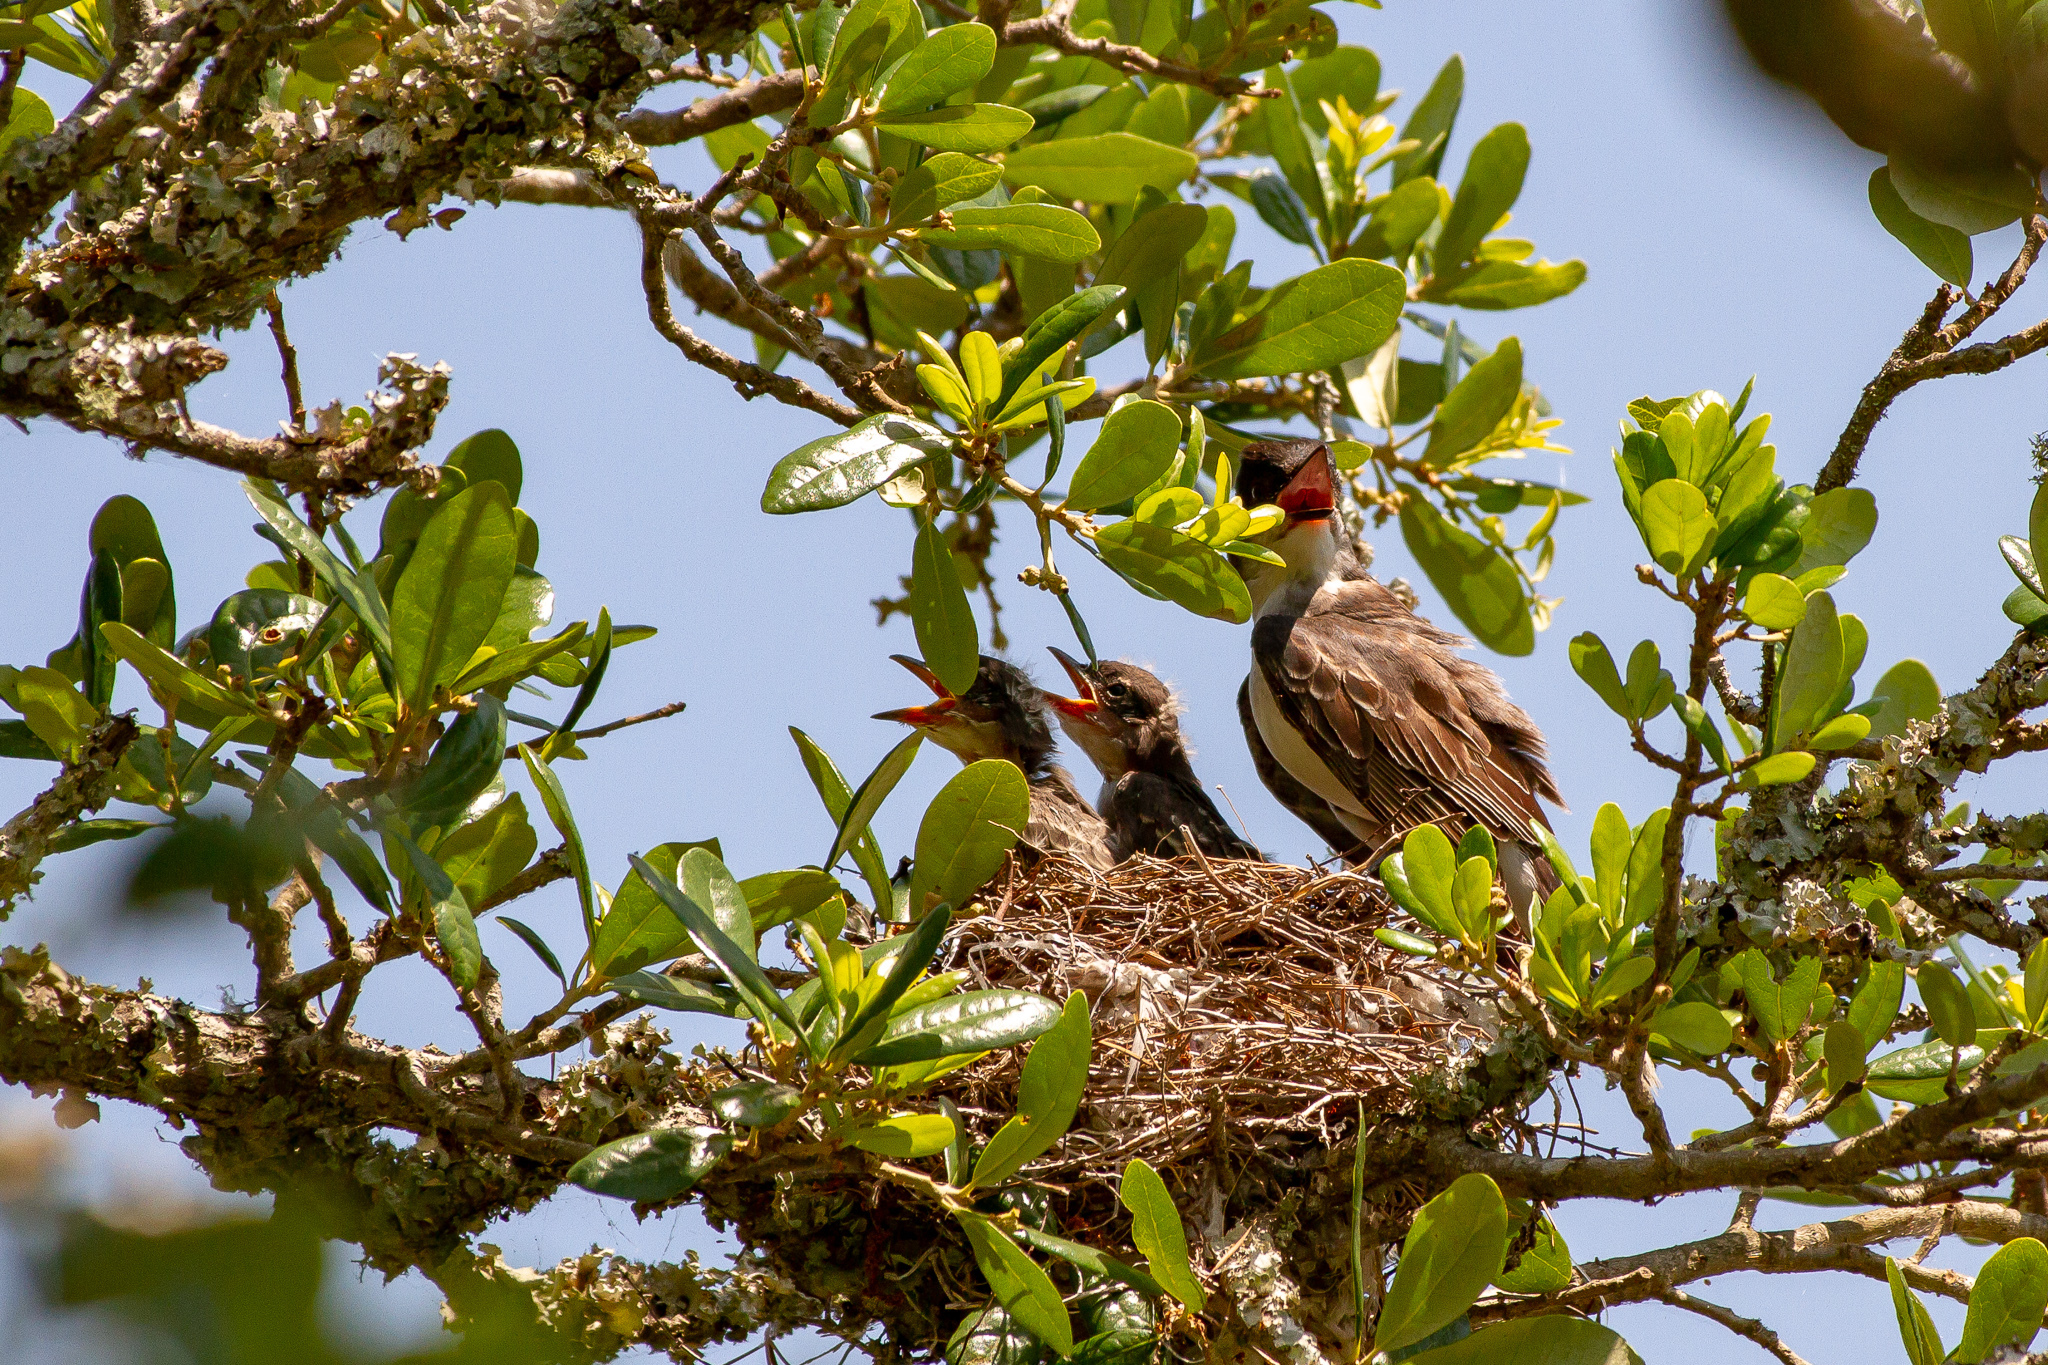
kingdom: Animalia
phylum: Chordata
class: Aves
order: Passeriformes
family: Tyrannidae
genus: Tyrannus
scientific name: Tyrannus tyrannus
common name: Eastern kingbird
